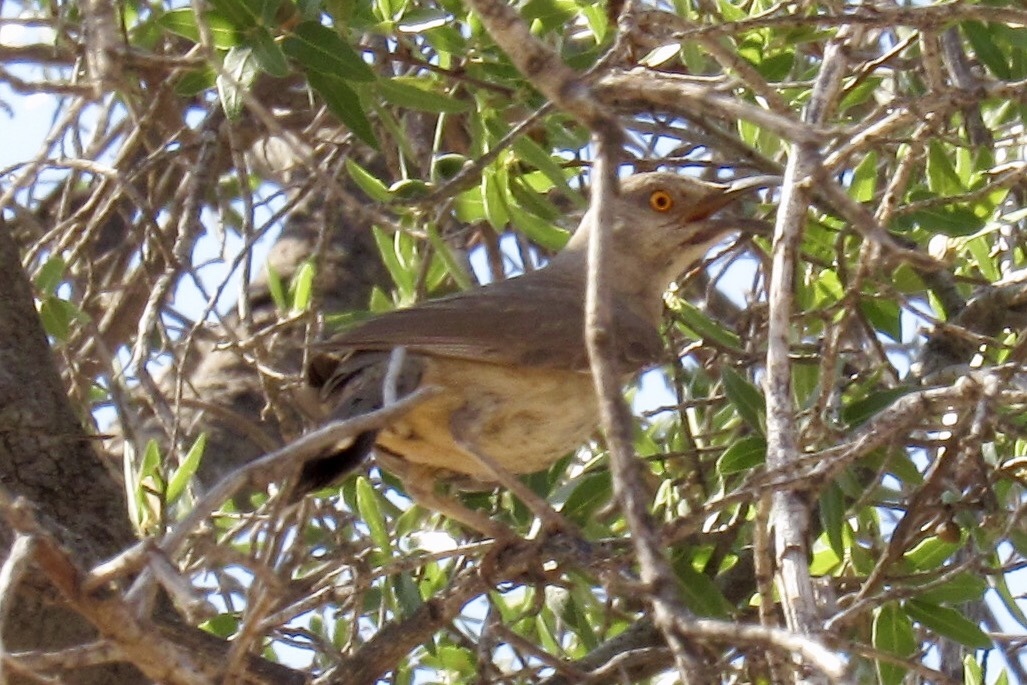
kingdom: Animalia
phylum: Chordata
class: Aves
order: Passeriformes
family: Mimidae
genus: Toxostoma
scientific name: Toxostoma curvirostre
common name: Curve-billed thrasher
